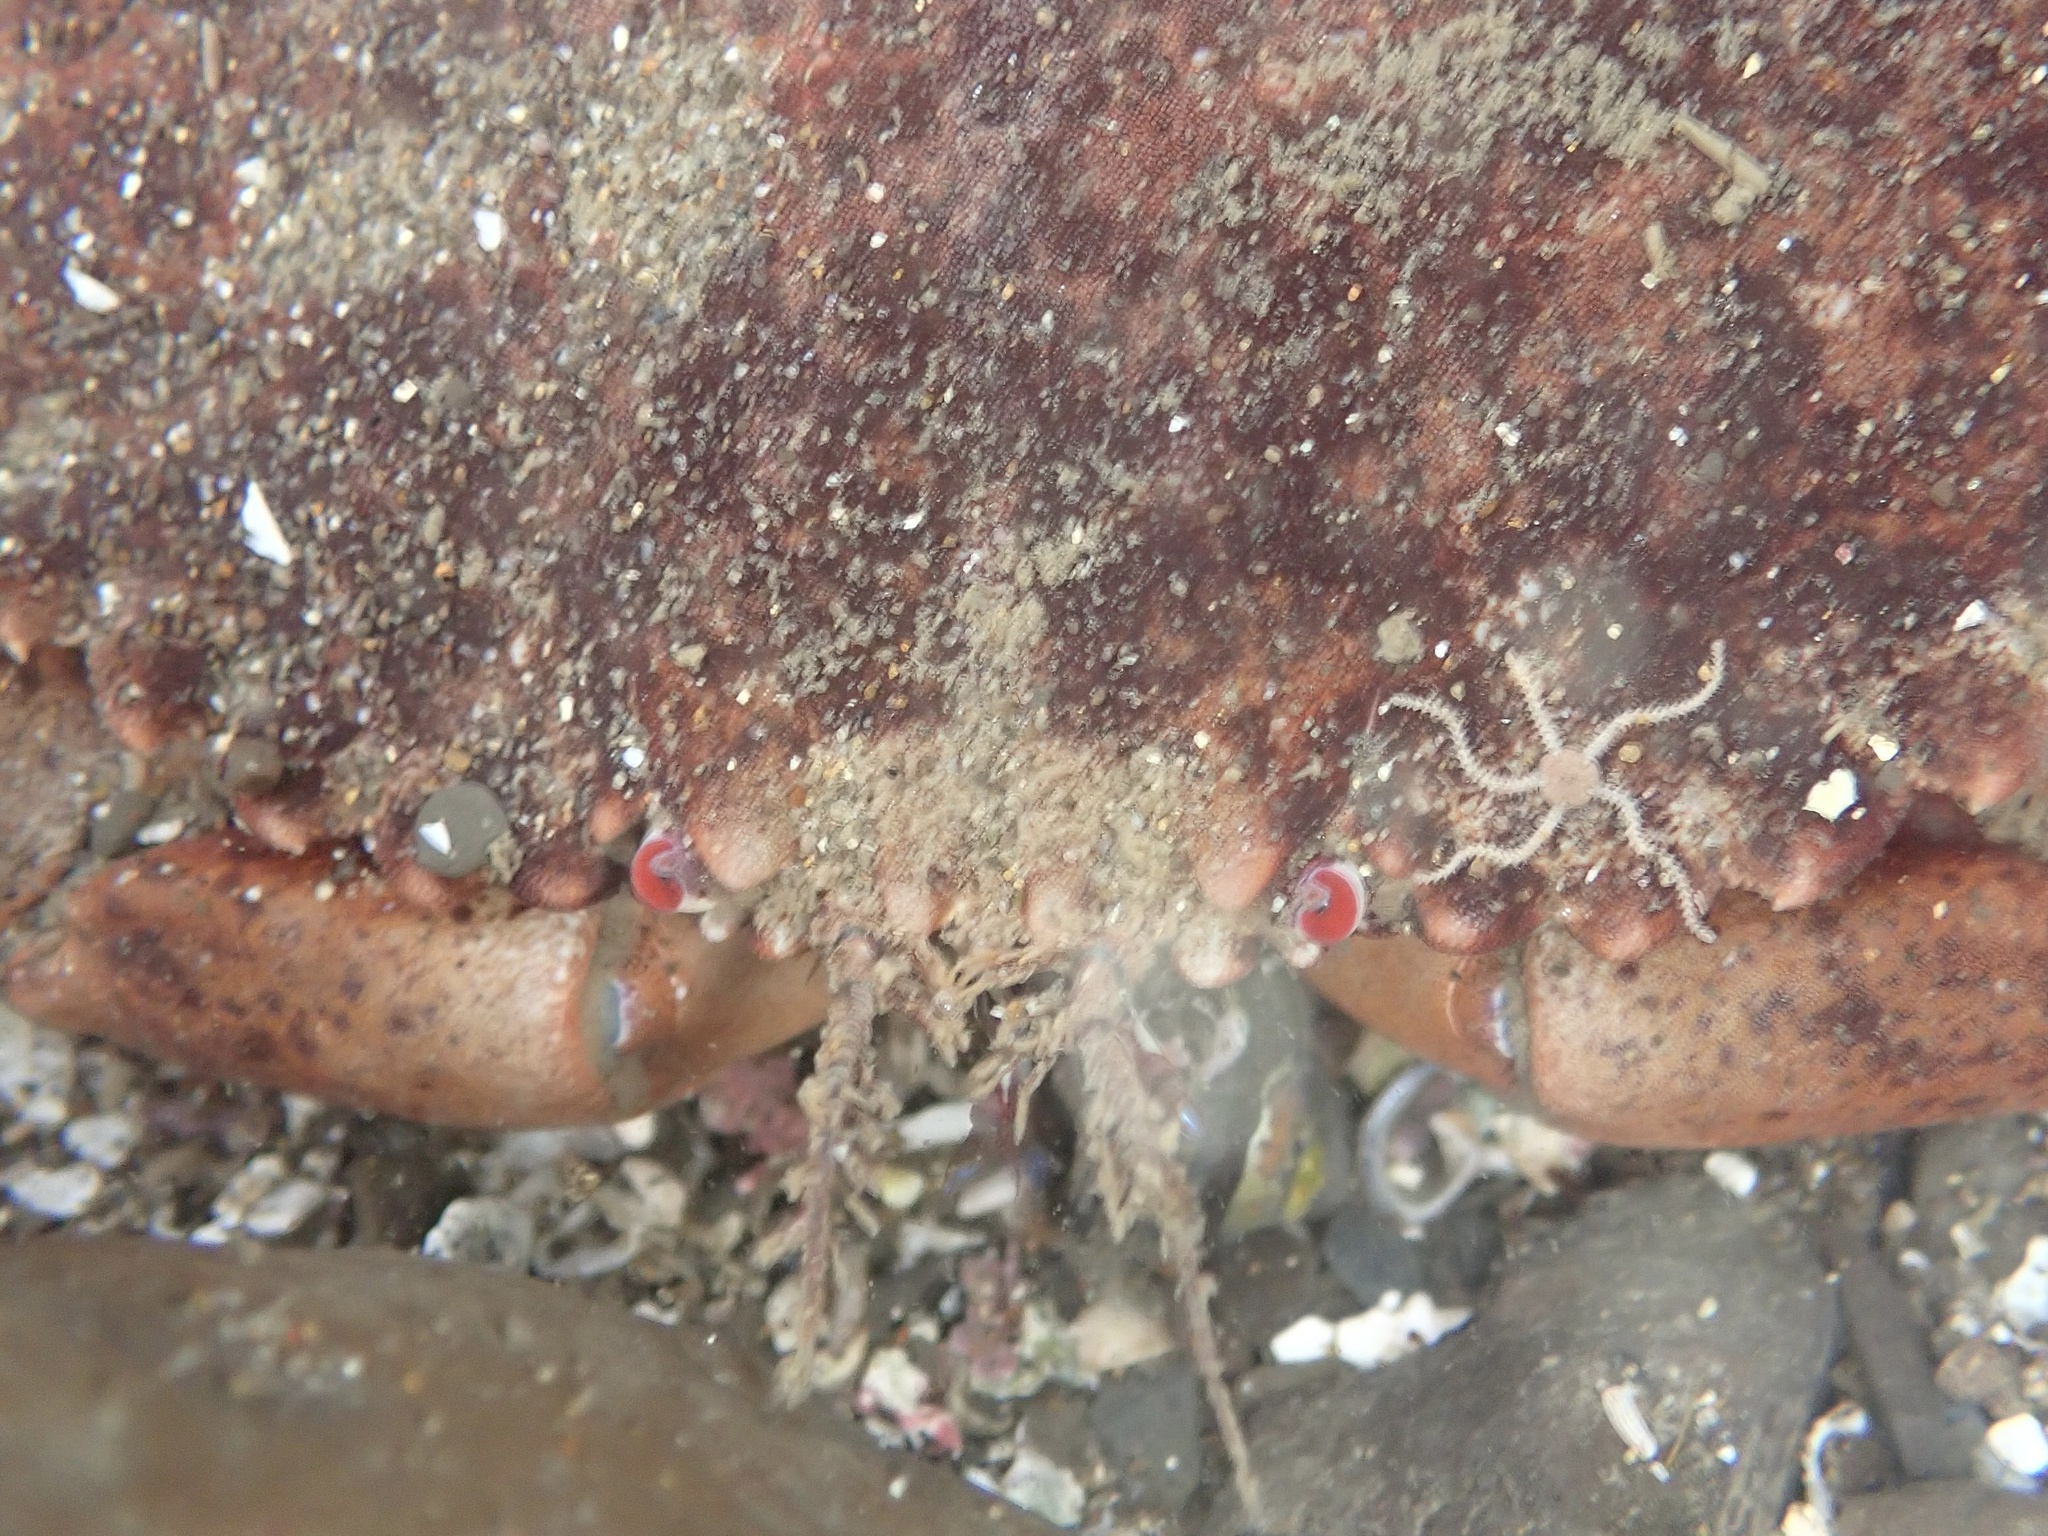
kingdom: Animalia
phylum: Arthropoda
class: Malacostraca
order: Decapoda
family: Cancridae
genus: Romaleon
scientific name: Romaleon antennarium
